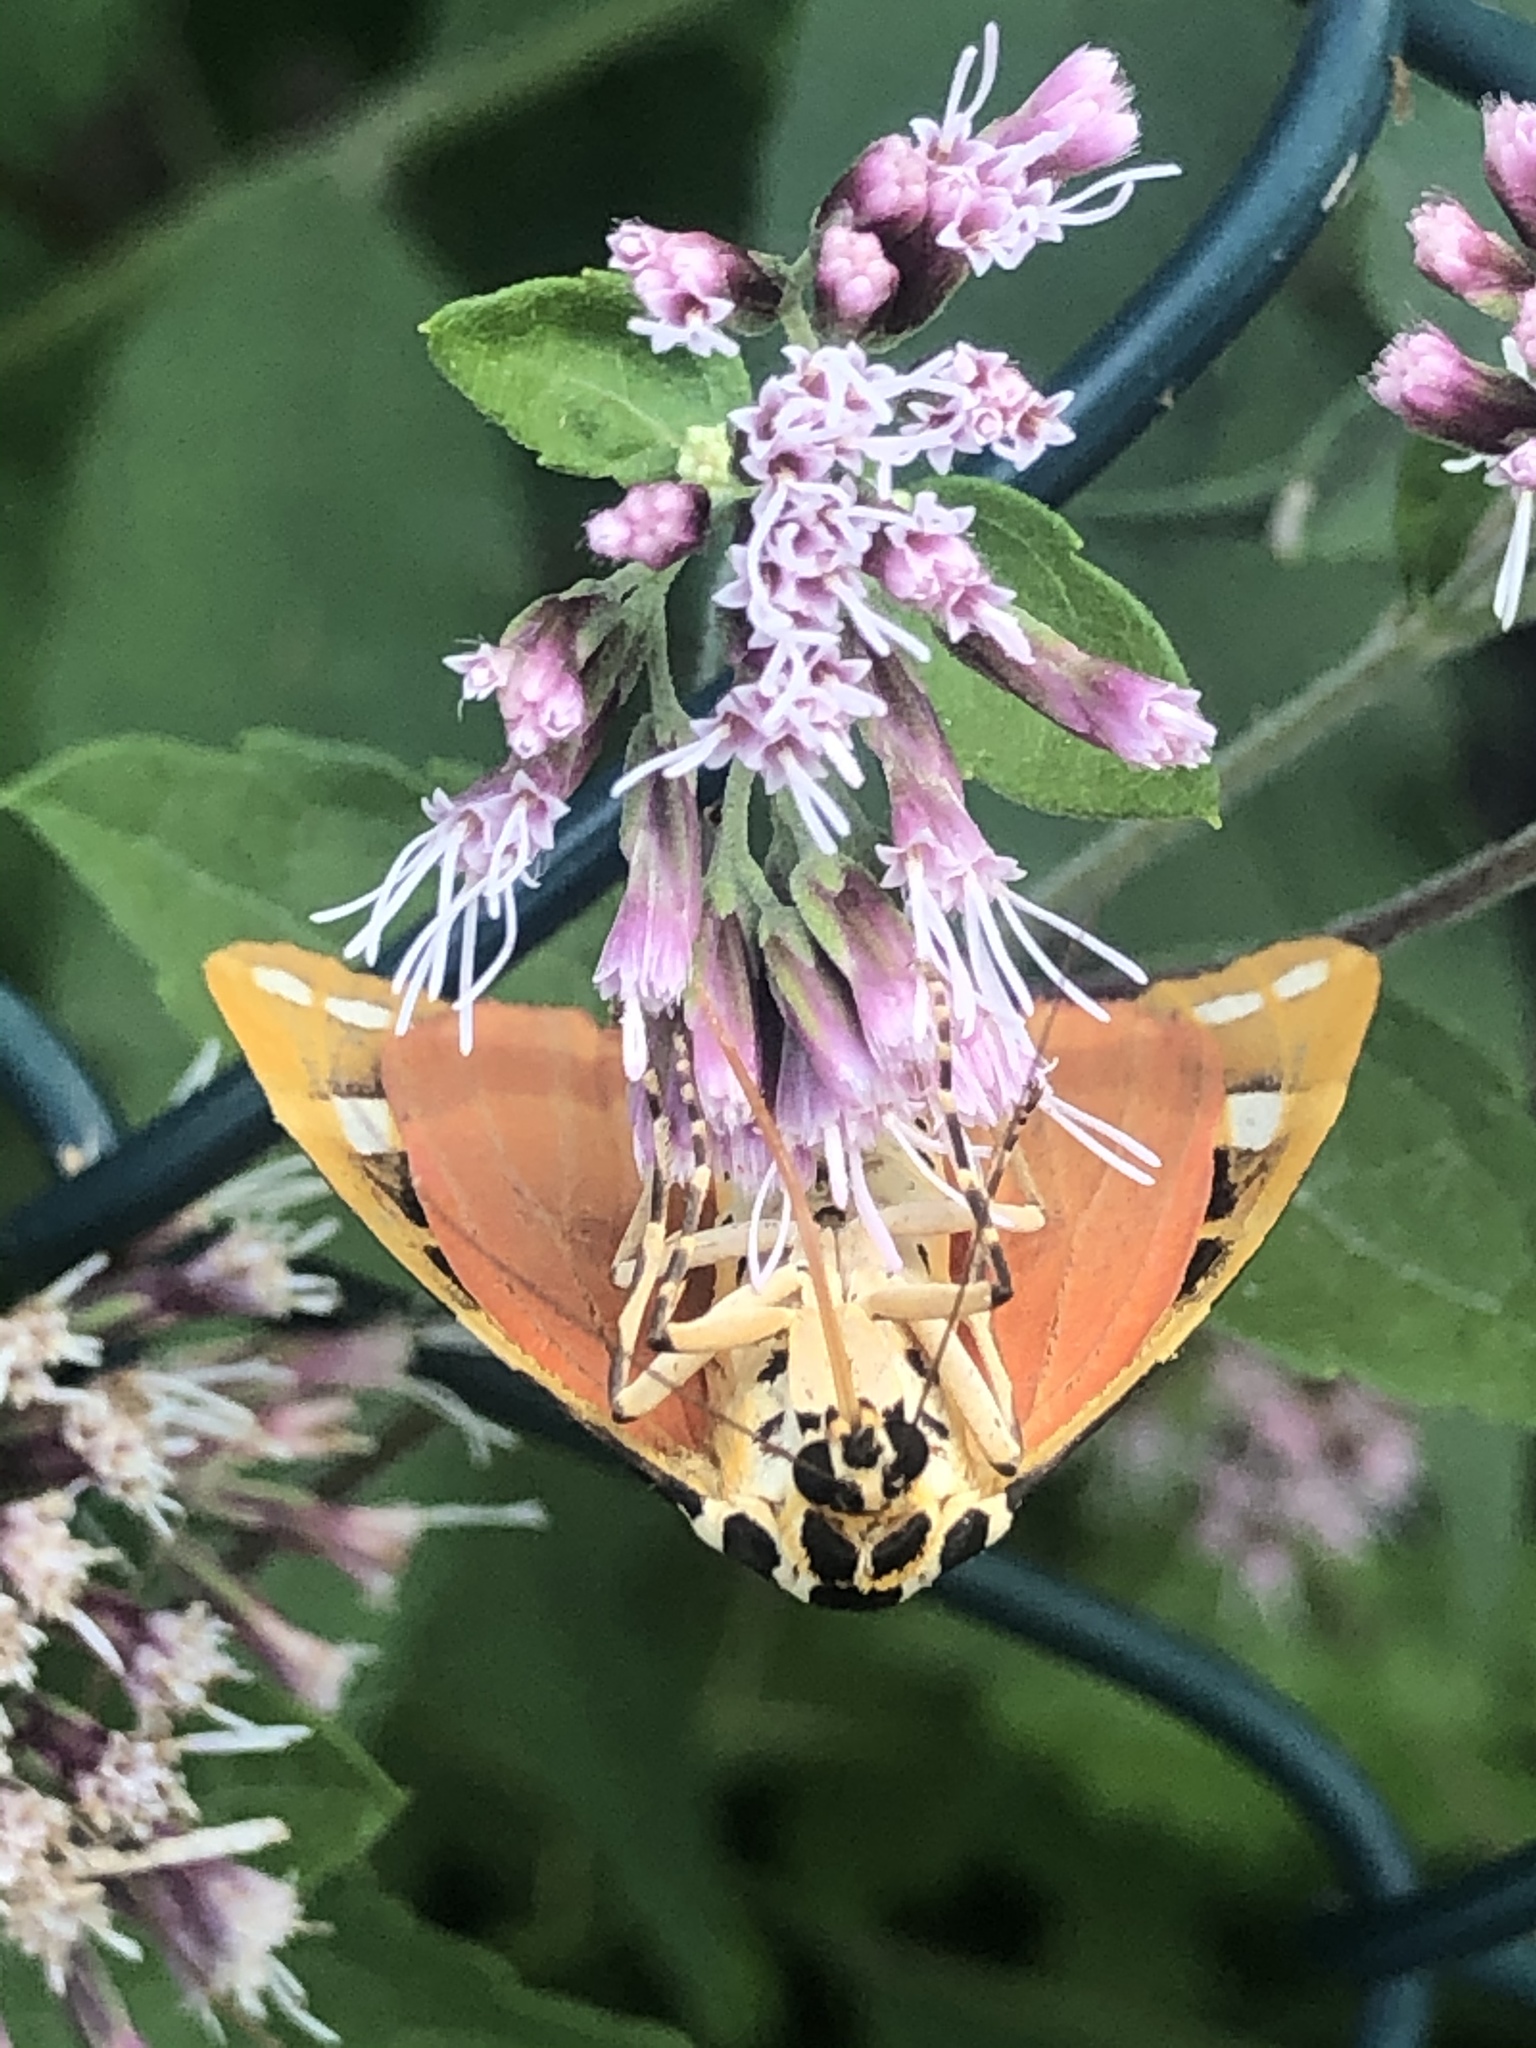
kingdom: Animalia
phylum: Arthropoda
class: Insecta
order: Lepidoptera
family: Erebidae
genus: Euplagia
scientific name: Euplagia quadripunctaria
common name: Jersey tiger
